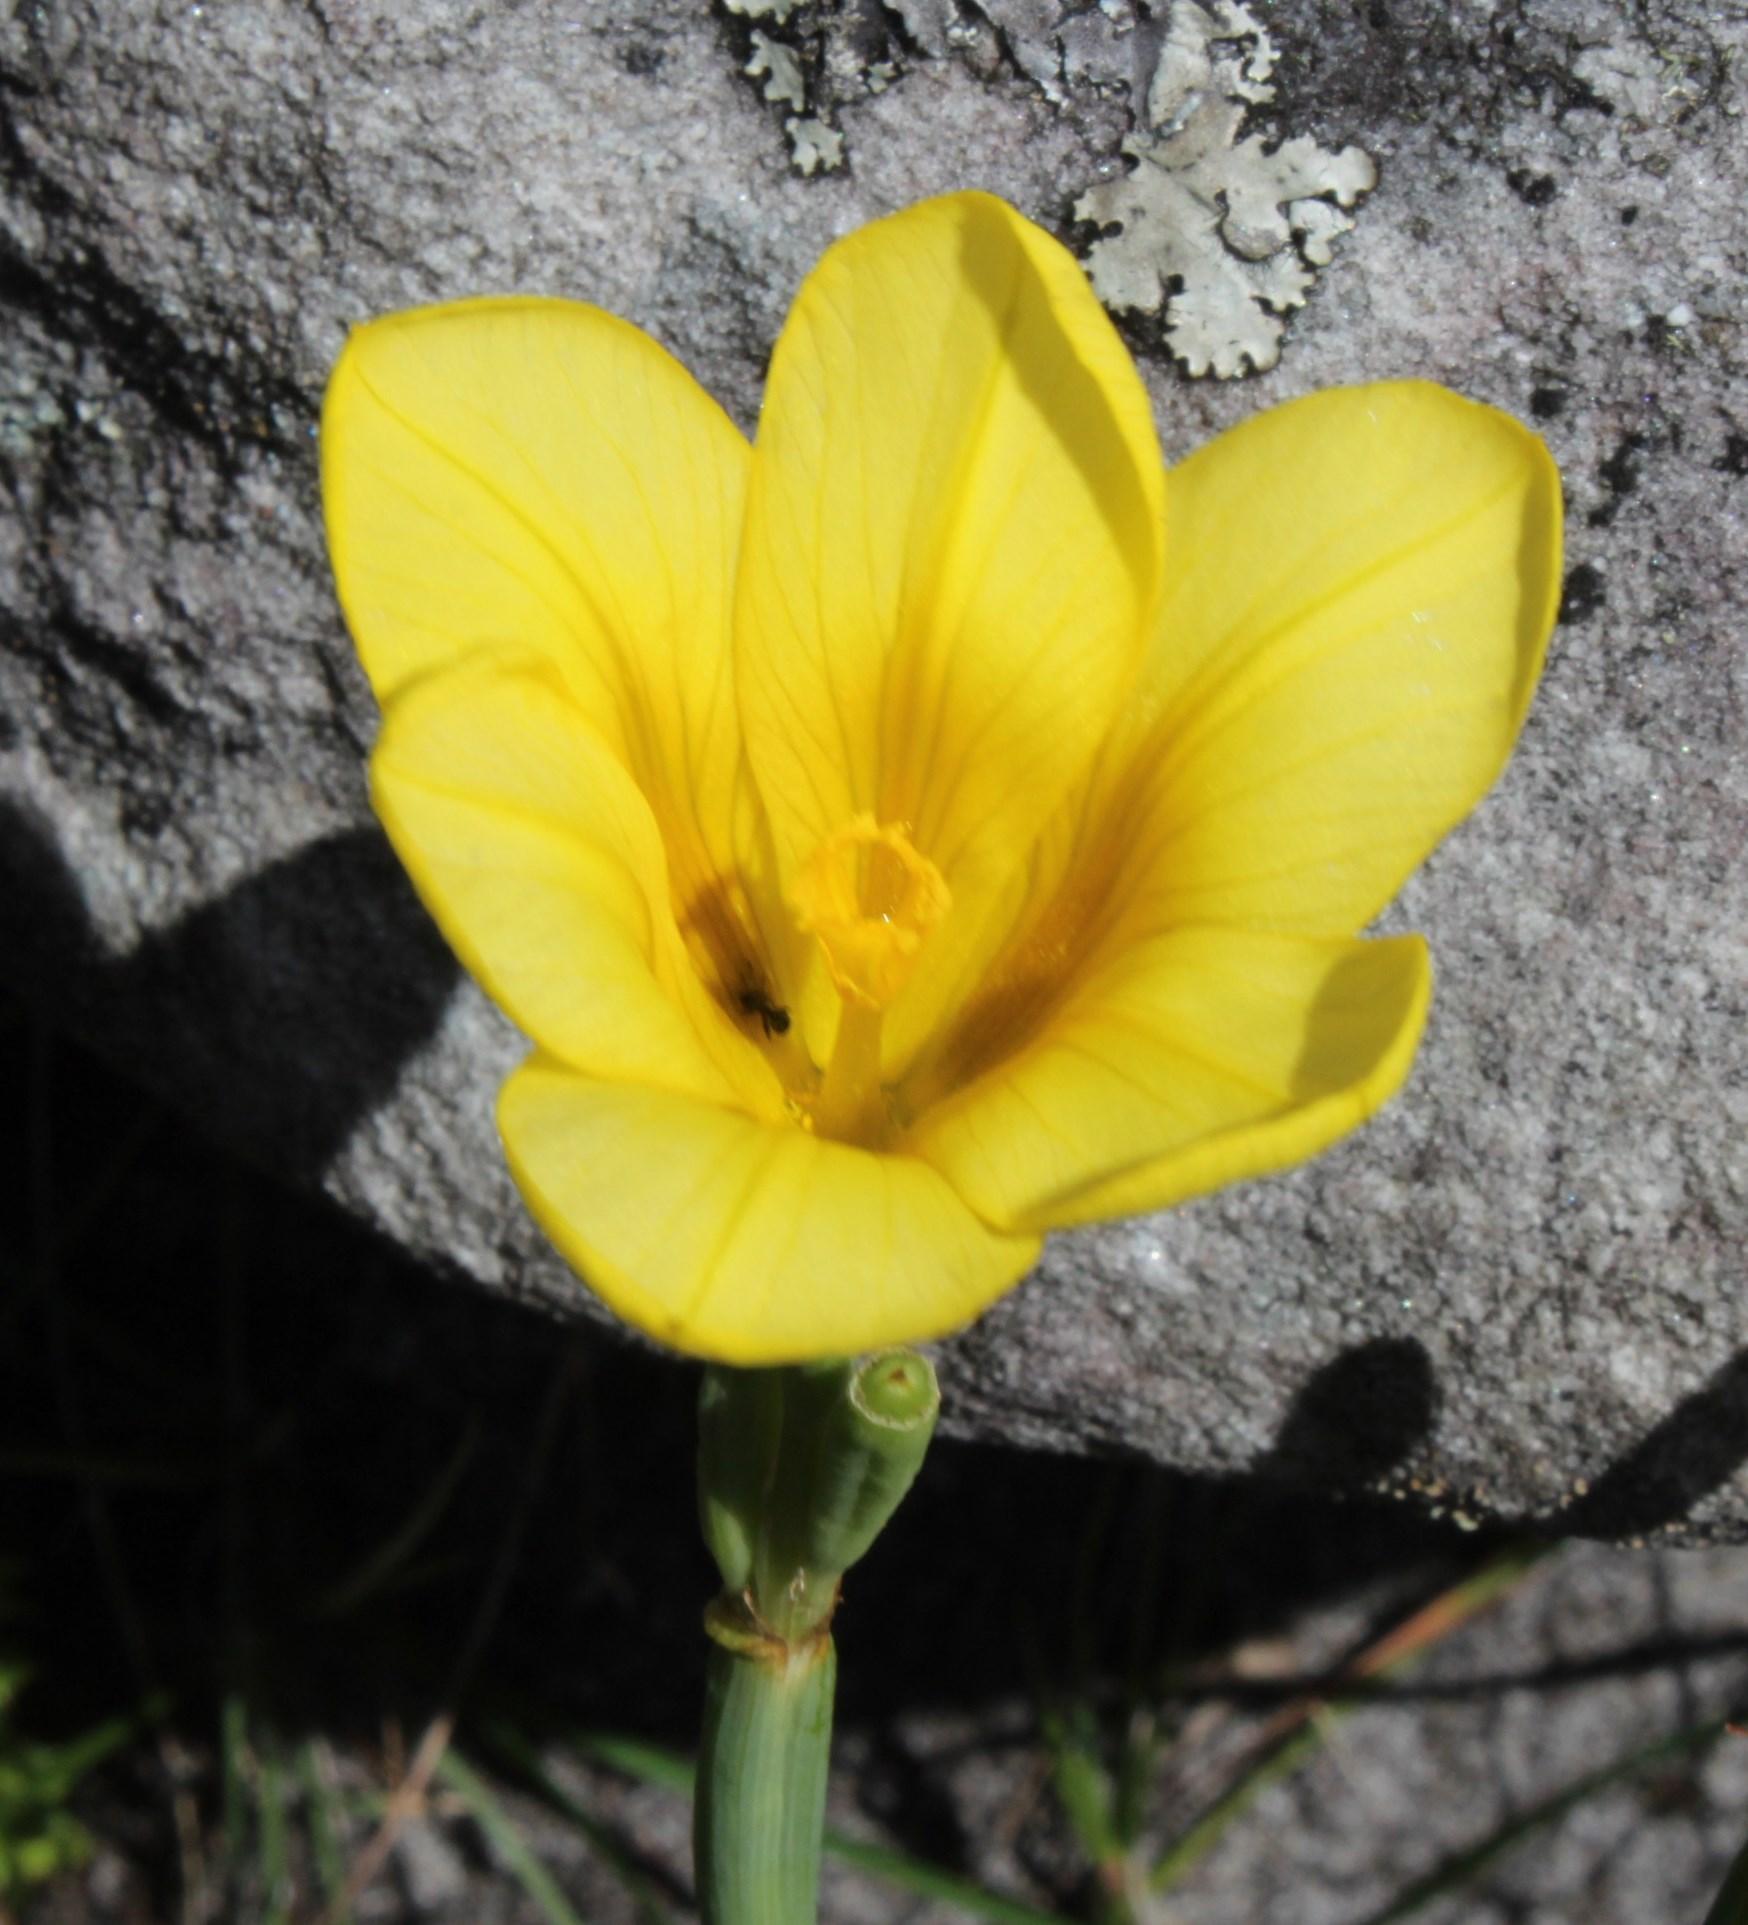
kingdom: Plantae
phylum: Tracheophyta
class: Liliopsida
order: Asparagales
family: Iridaceae
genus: Moraea
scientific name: Moraea ochroleuca
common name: Red tulp
